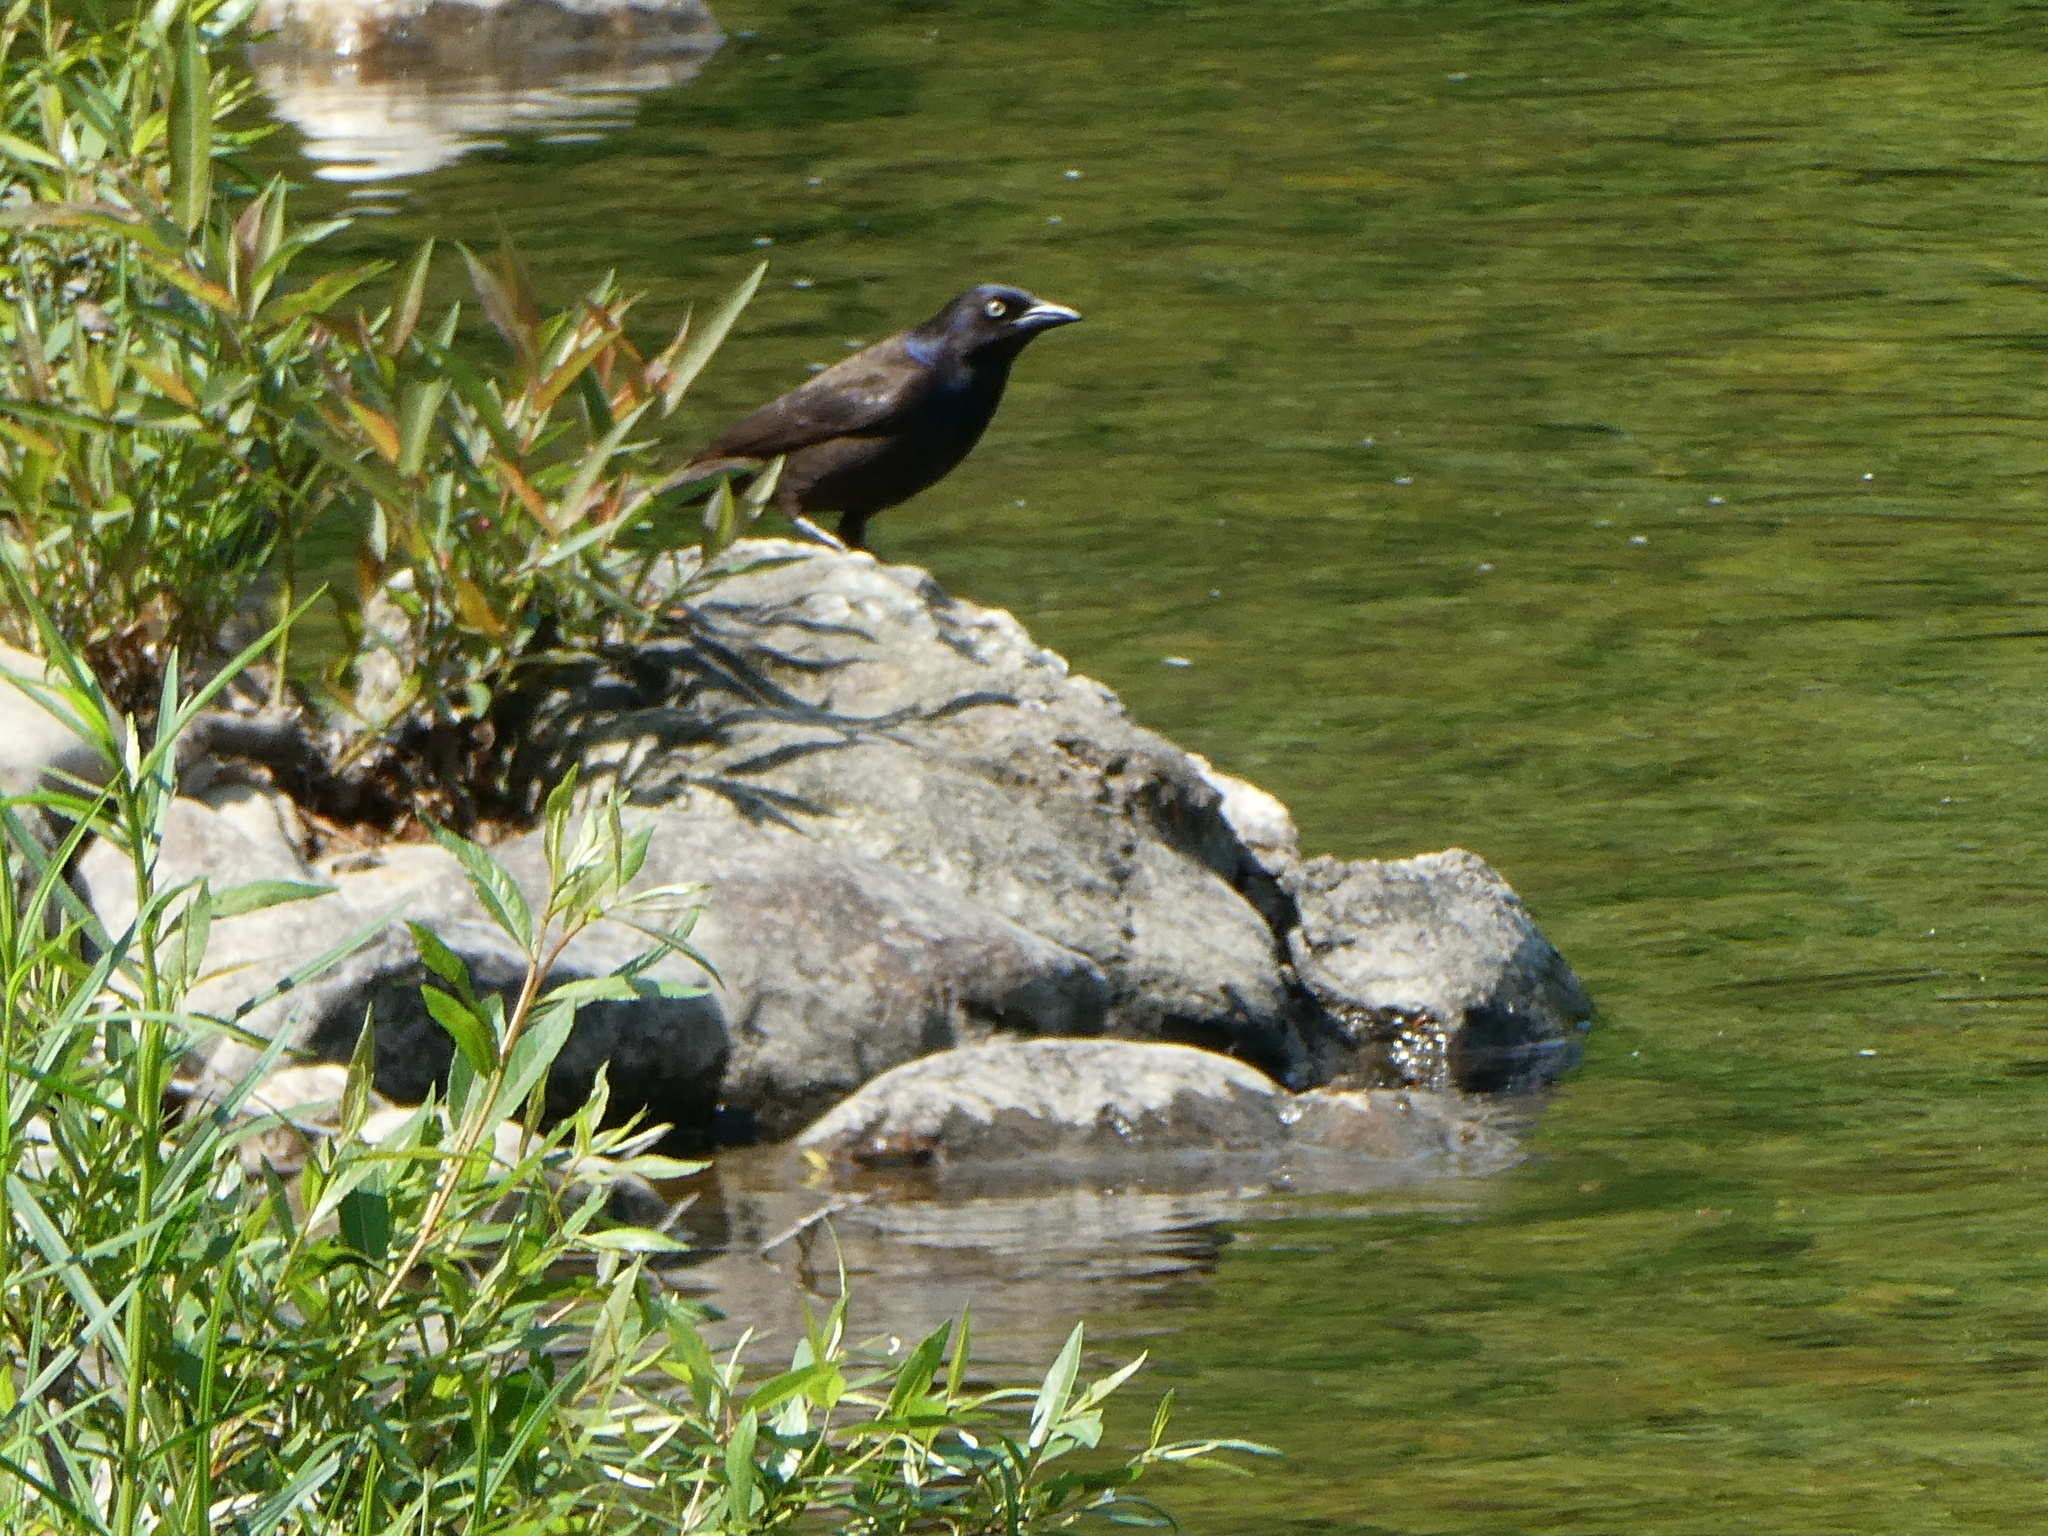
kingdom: Animalia
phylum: Chordata
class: Aves
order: Passeriformes
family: Icteridae
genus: Quiscalus
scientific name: Quiscalus quiscula
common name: Common grackle
